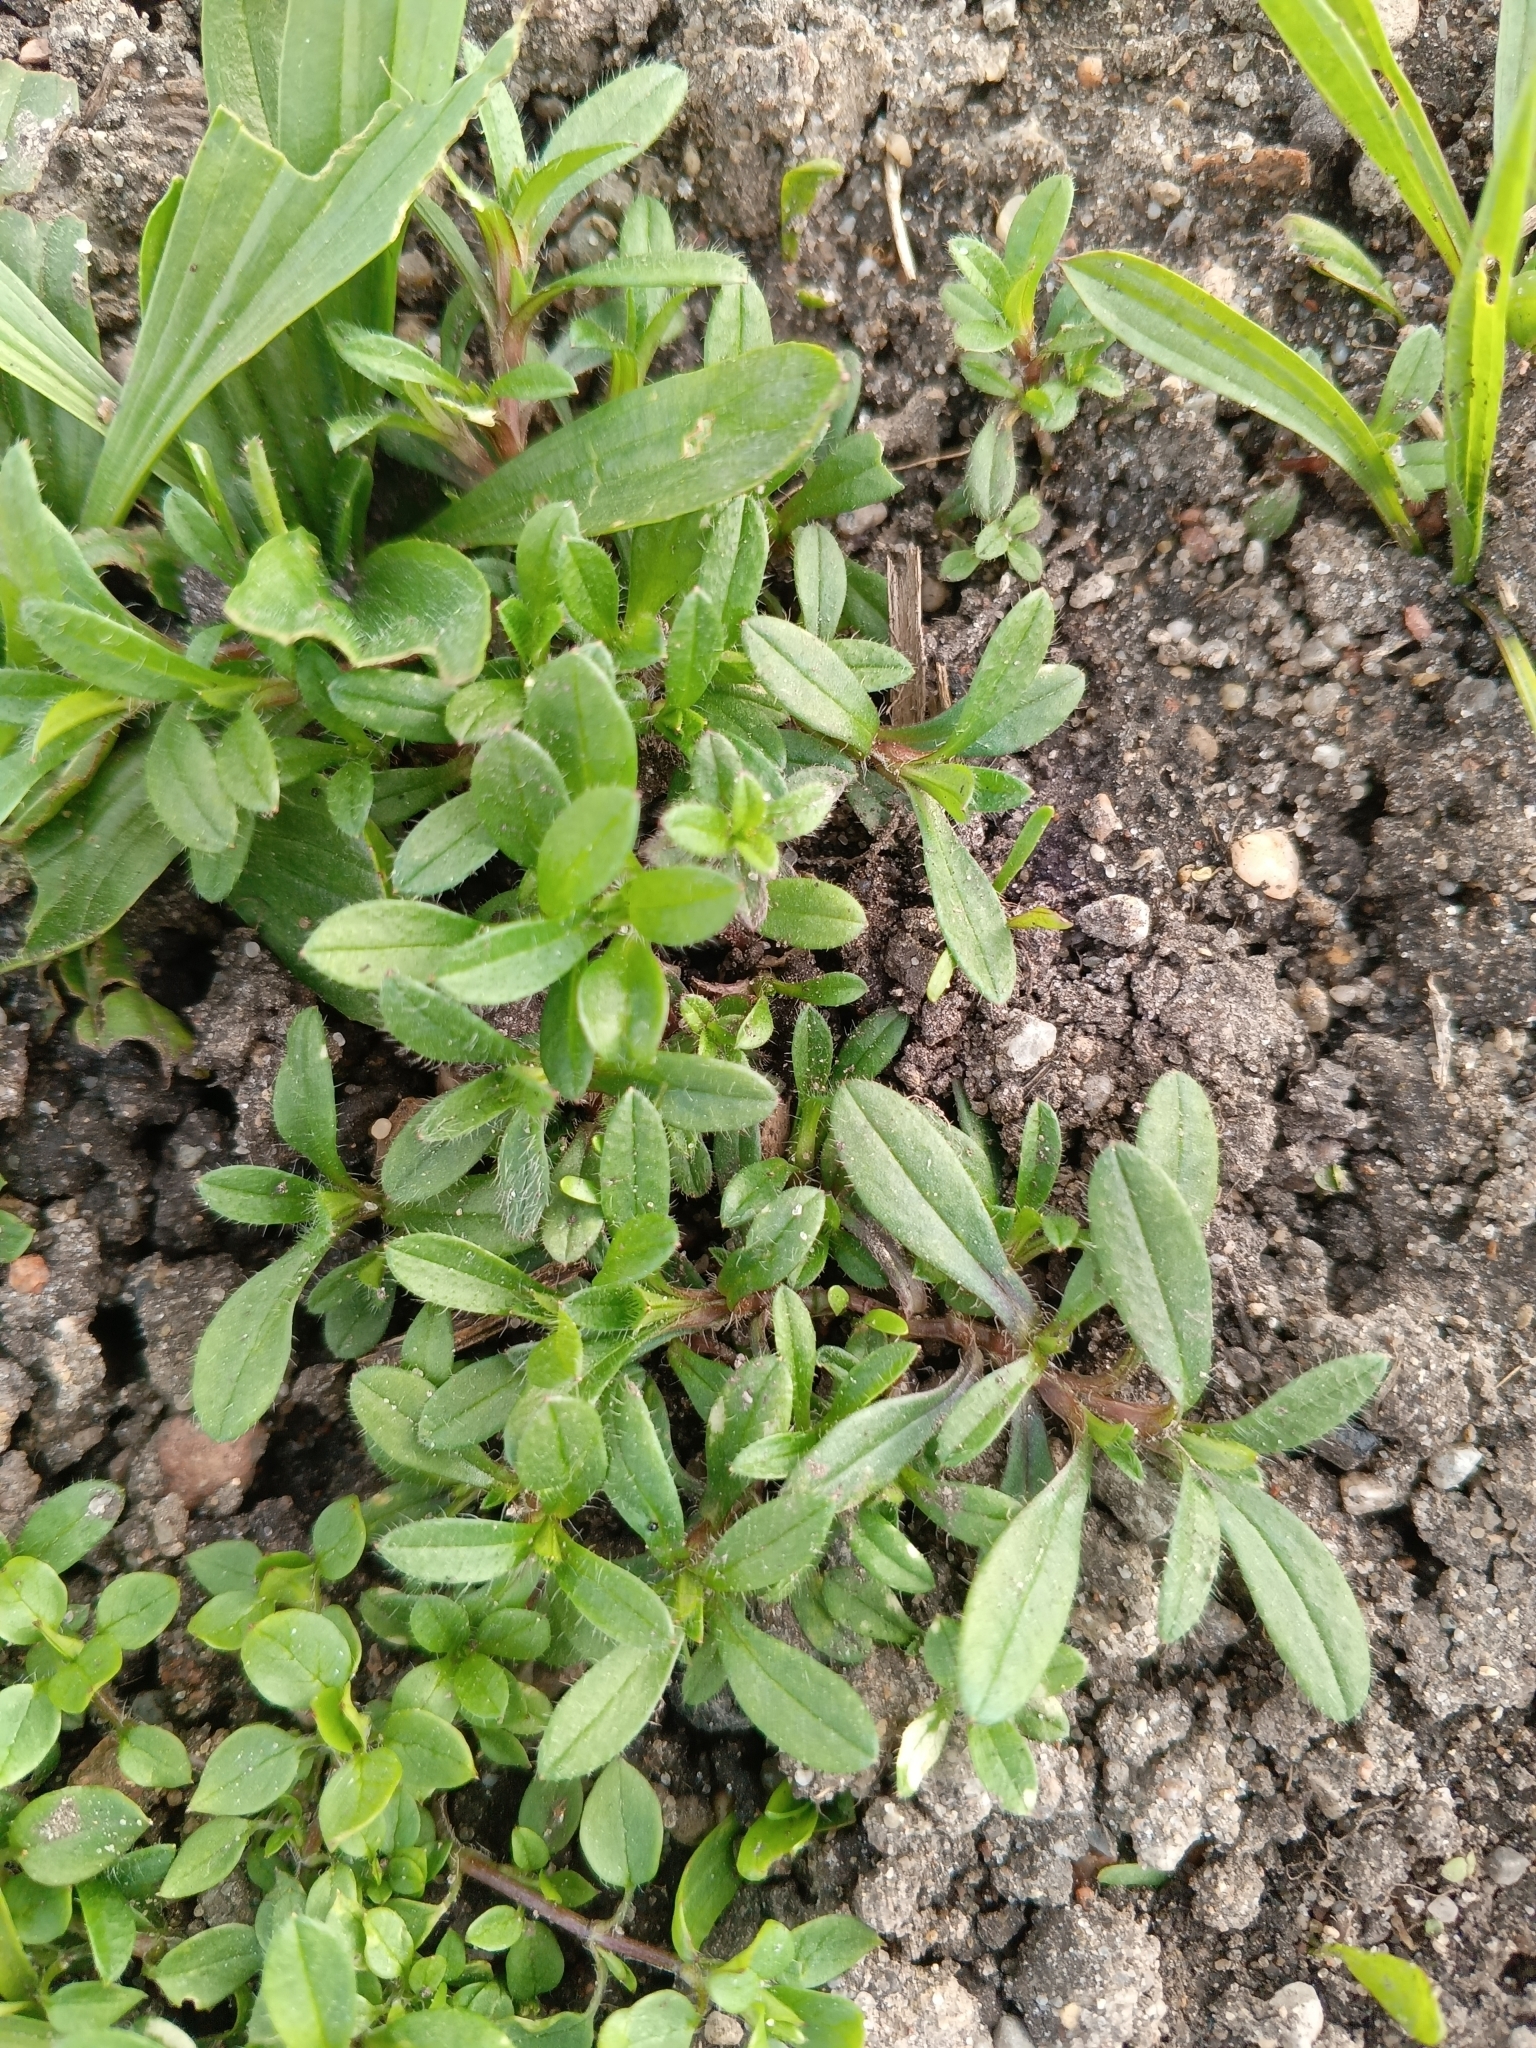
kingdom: Plantae
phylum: Tracheophyta
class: Magnoliopsida
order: Caryophyllales
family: Caryophyllaceae
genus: Cerastium
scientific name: Cerastium holosteoides
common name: Big chickweed
